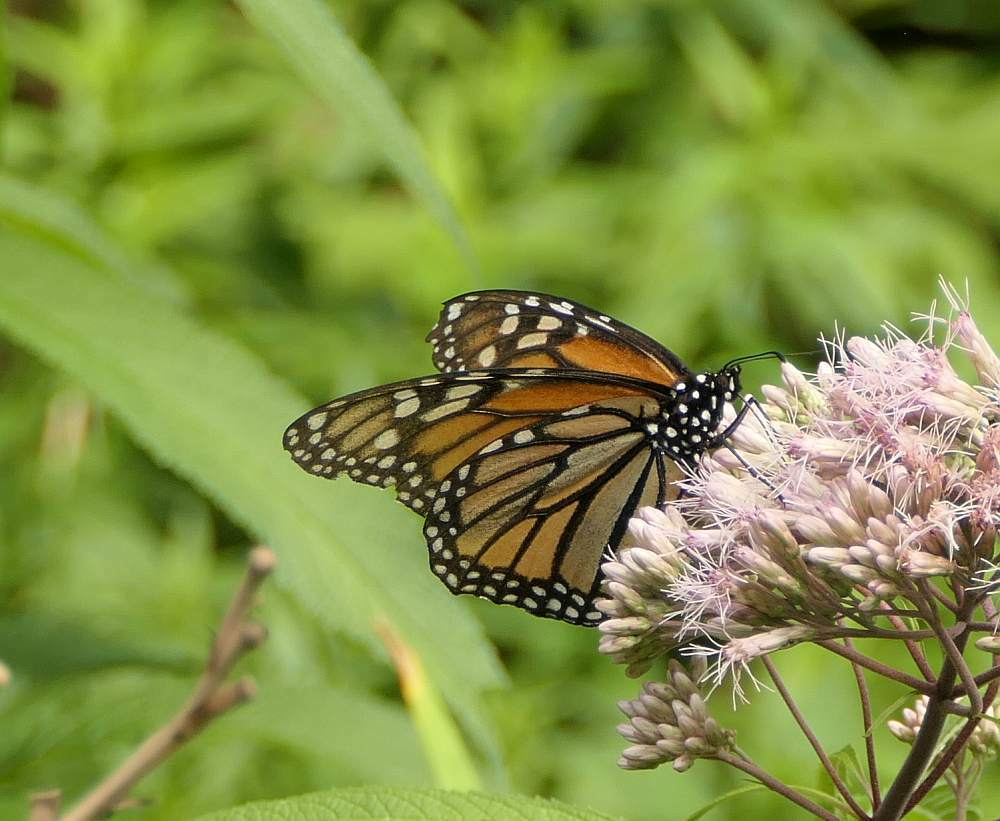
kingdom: Animalia
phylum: Arthropoda
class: Insecta
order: Lepidoptera
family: Nymphalidae
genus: Danaus
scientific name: Danaus plexippus
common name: Monarch
